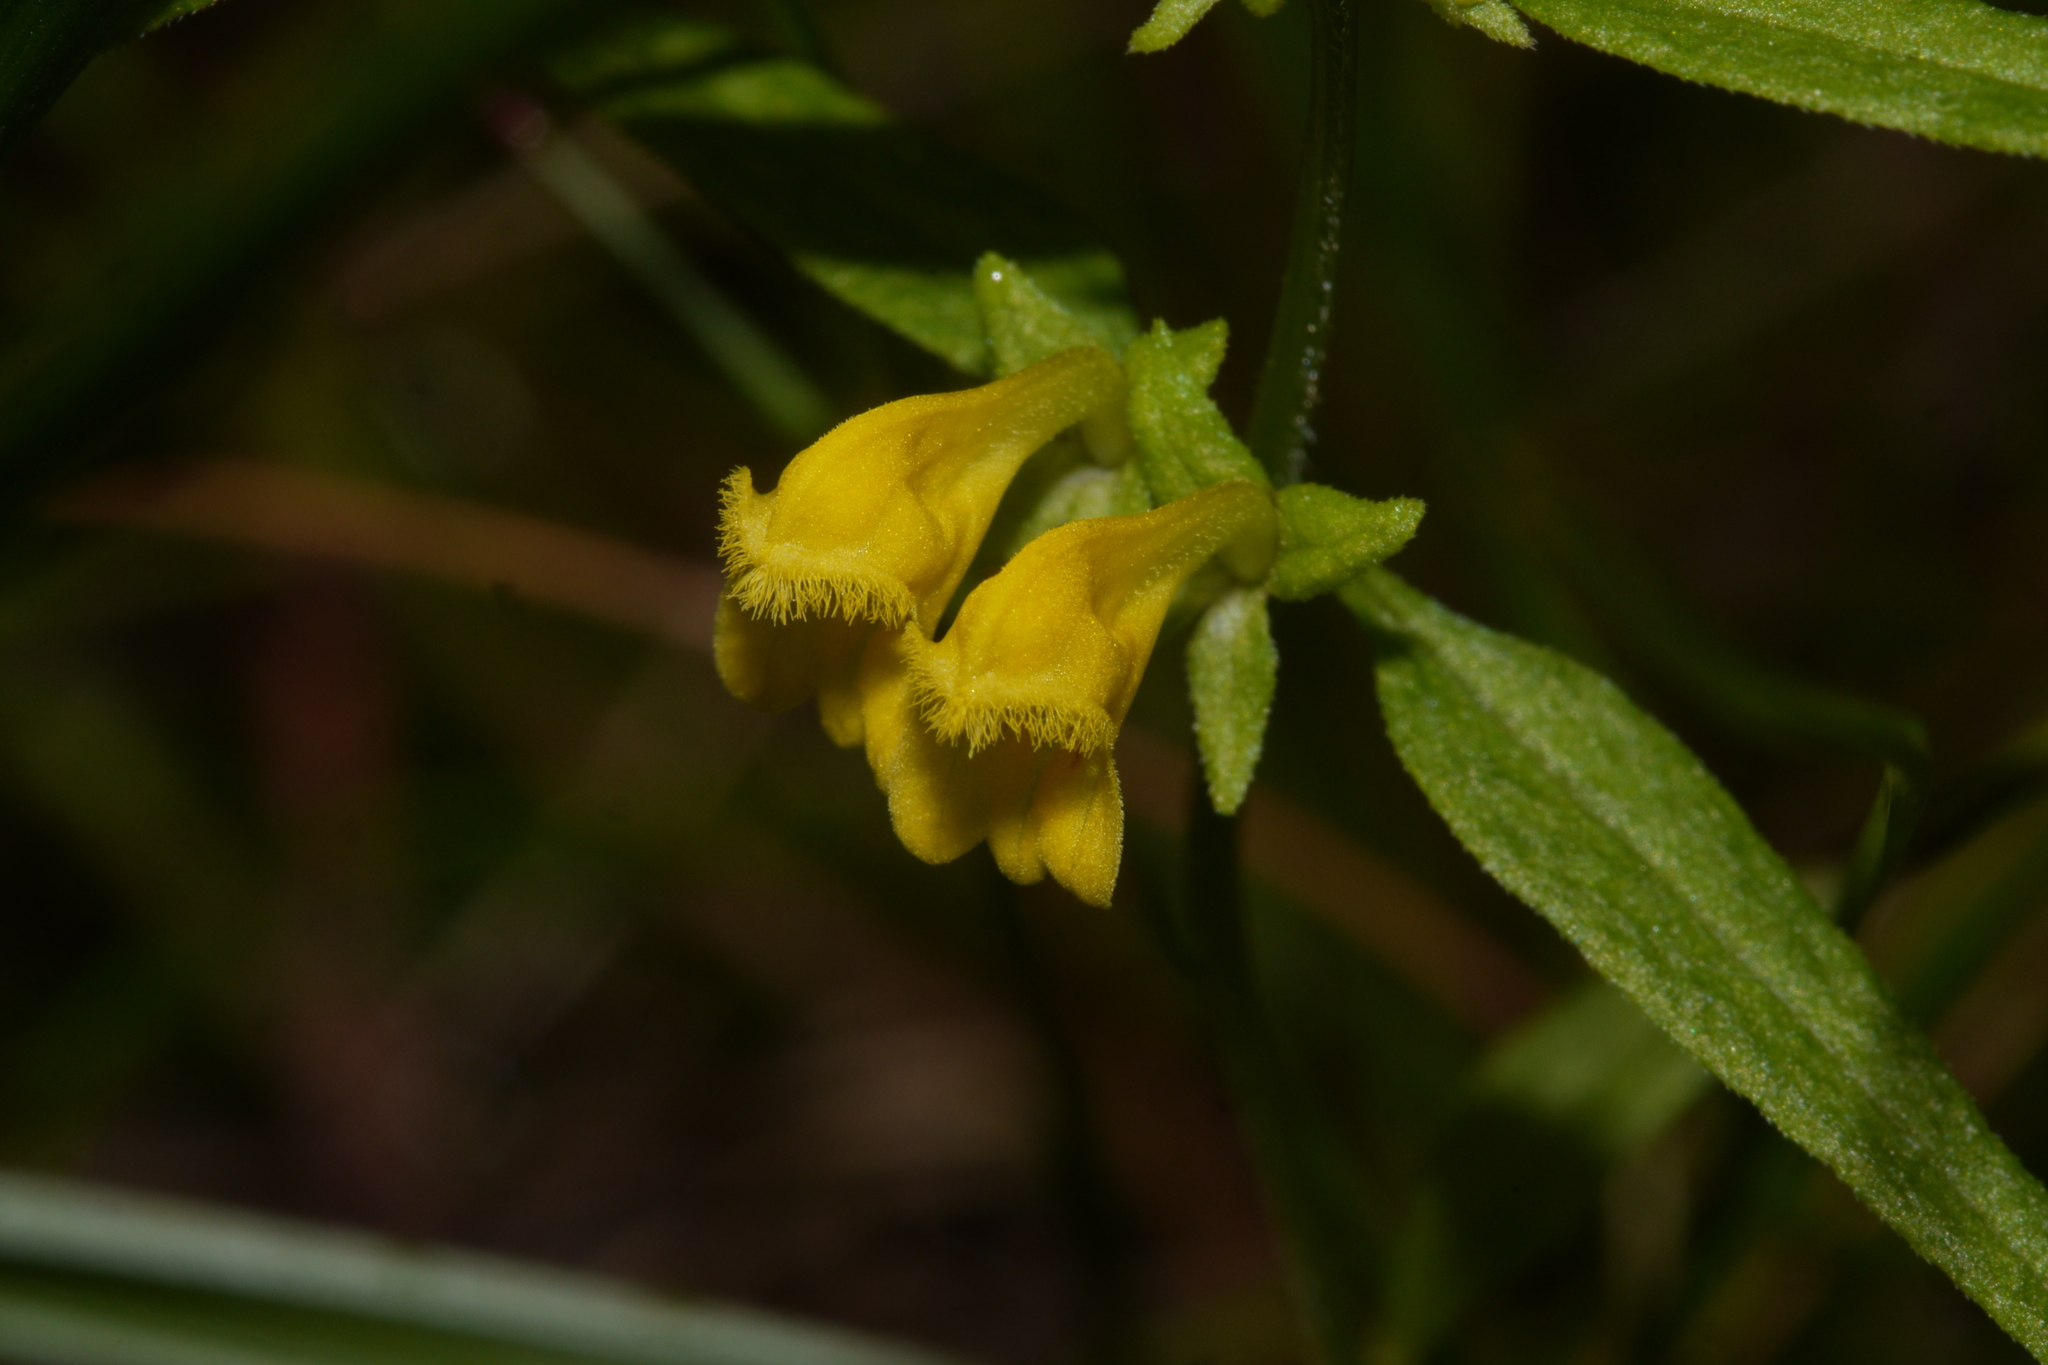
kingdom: Plantae
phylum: Tracheophyta
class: Magnoliopsida
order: Lamiales
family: Orobanchaceae
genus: Melampyrum
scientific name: Melampyrum sylvaticum
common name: Small cow-wheat
